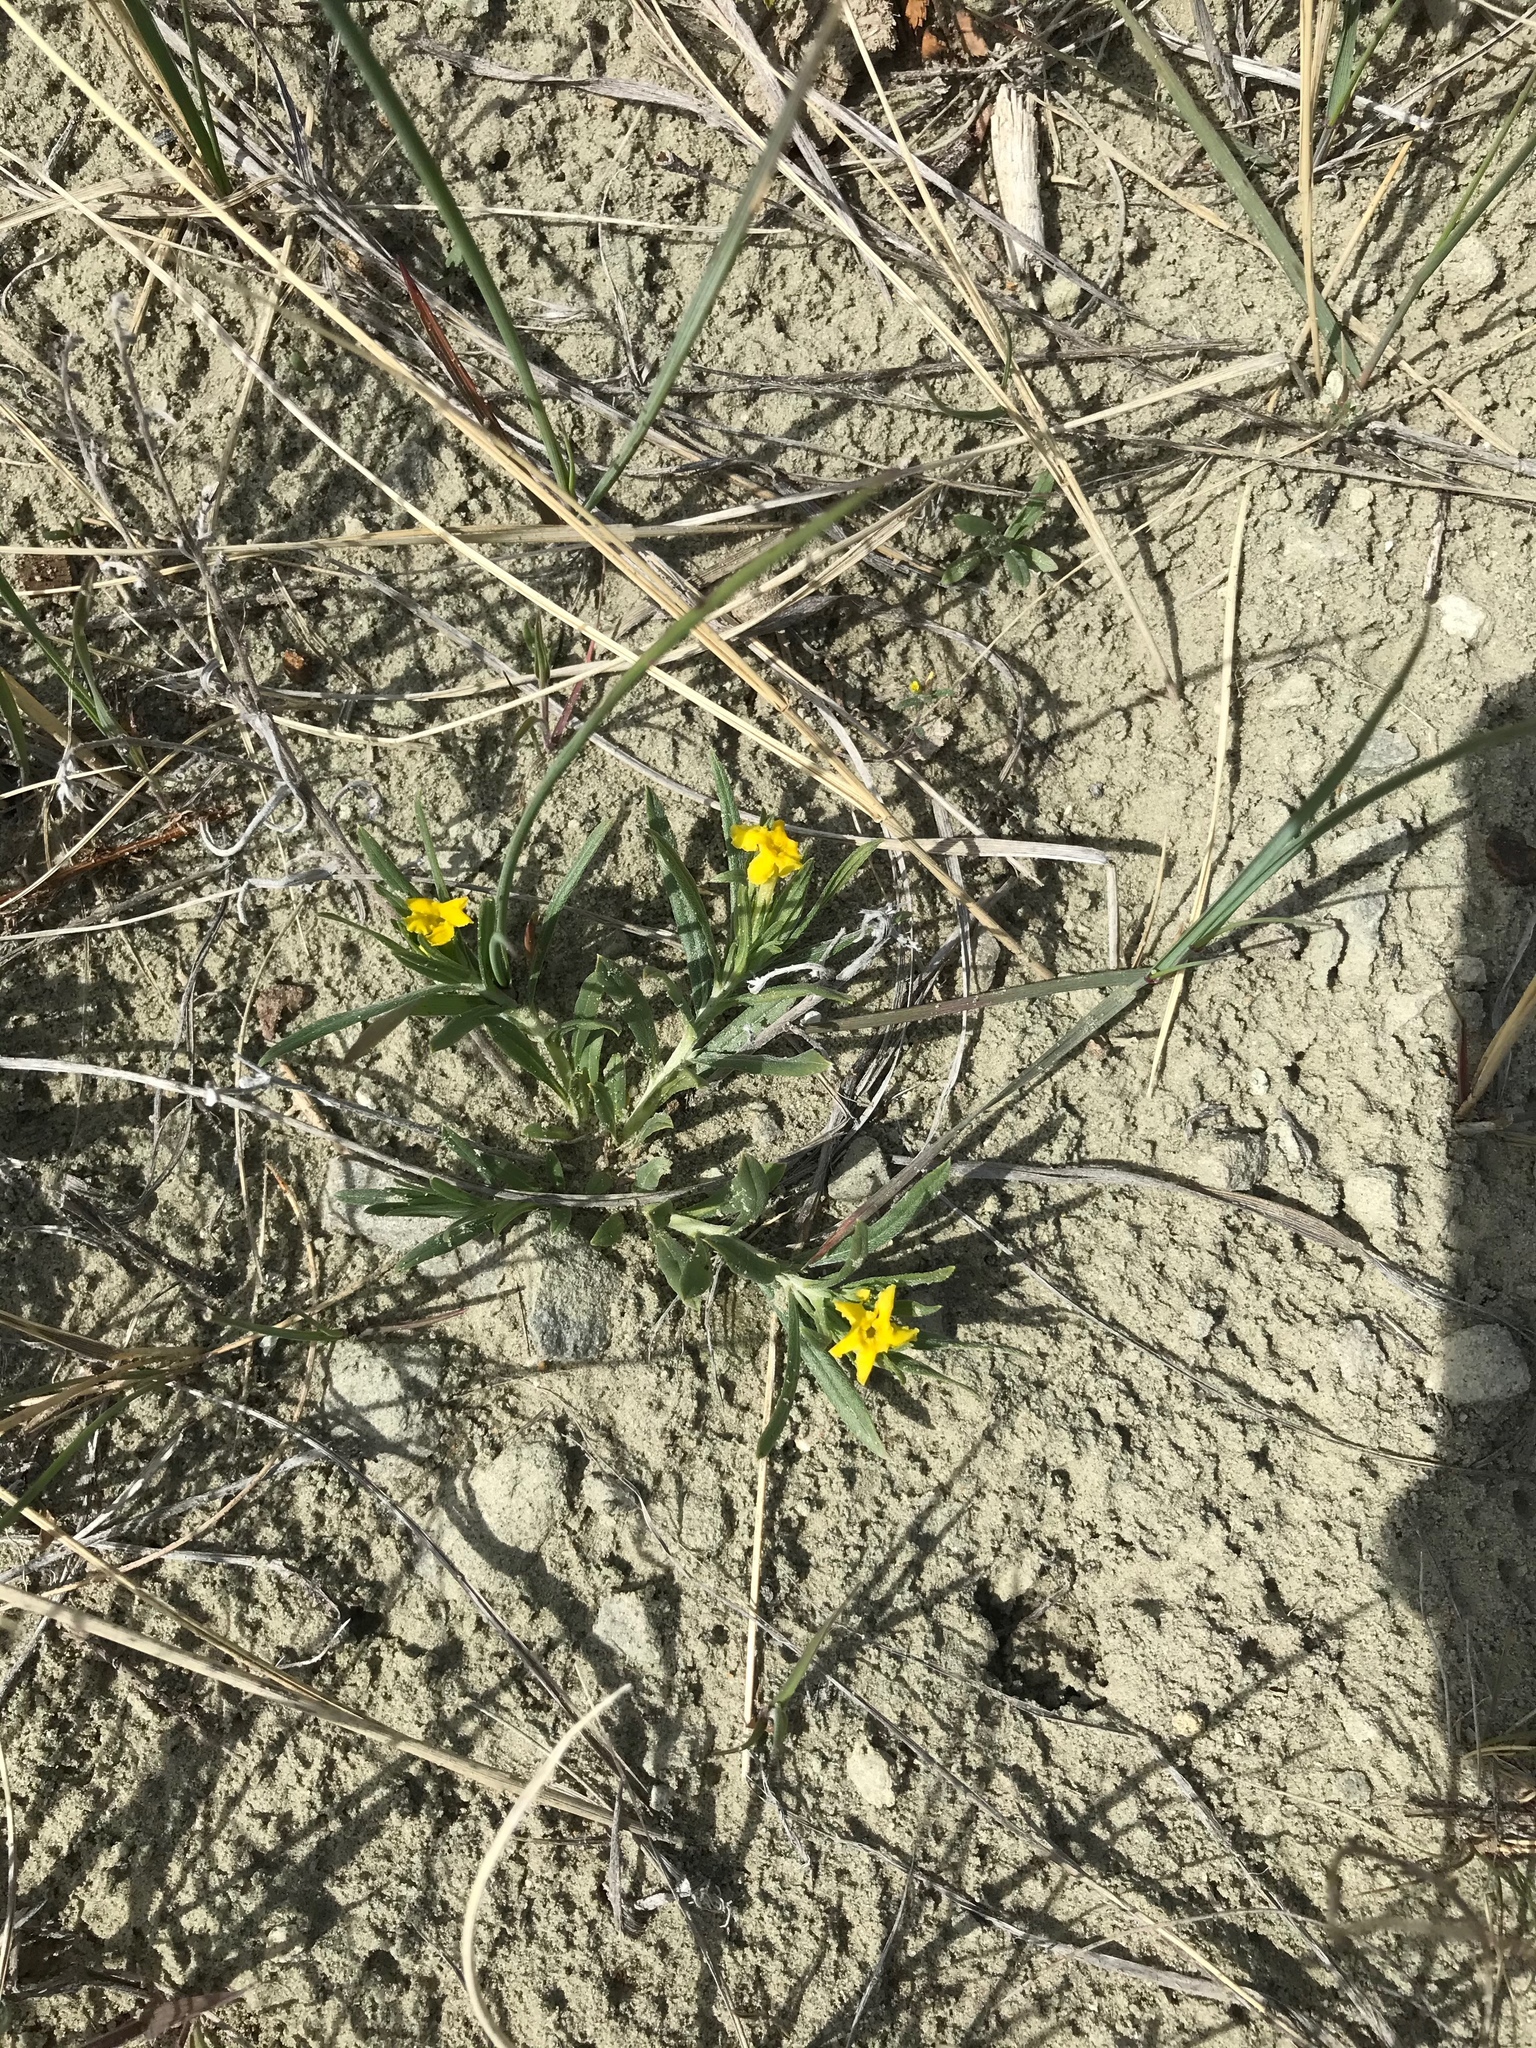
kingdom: Plantae
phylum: Tracheophyta
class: Magnoliopsida
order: Boraginales
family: Boraginaceae
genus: Lithospermum
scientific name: Lithospermum incisum
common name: Fringed gromwell
